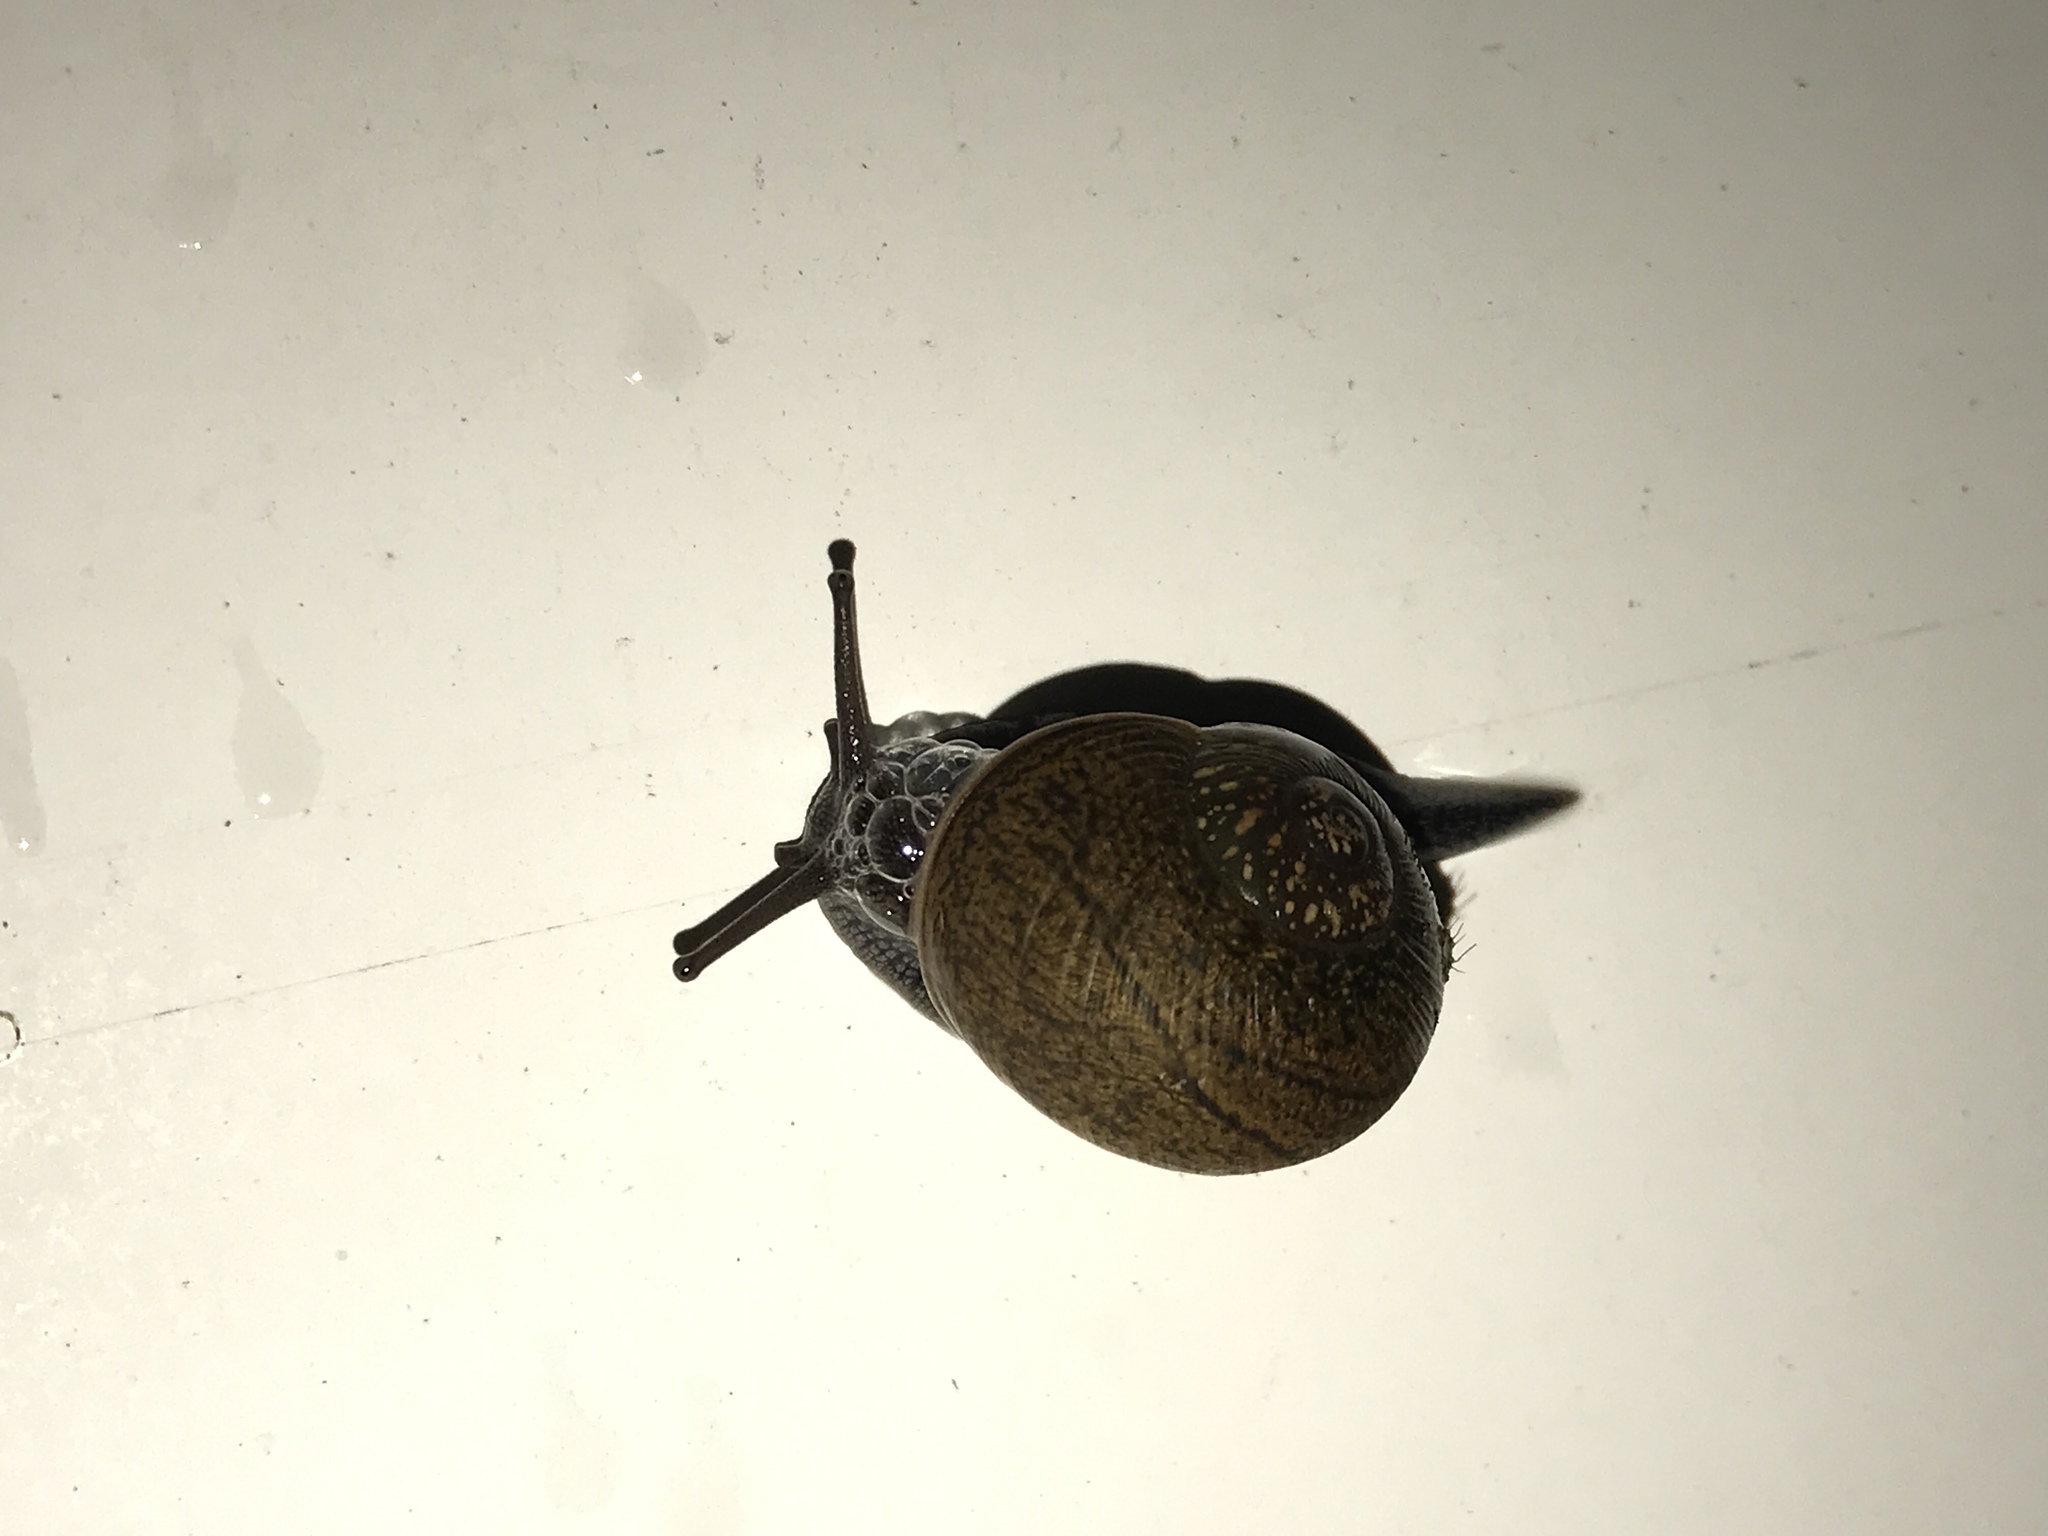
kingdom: Animalia
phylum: Mollusca
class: Gastropoda
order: Stylommatophora
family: Zachrysiidae
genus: Zachrysia
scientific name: Zachrysia provisoria
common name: Garden zachrysia
